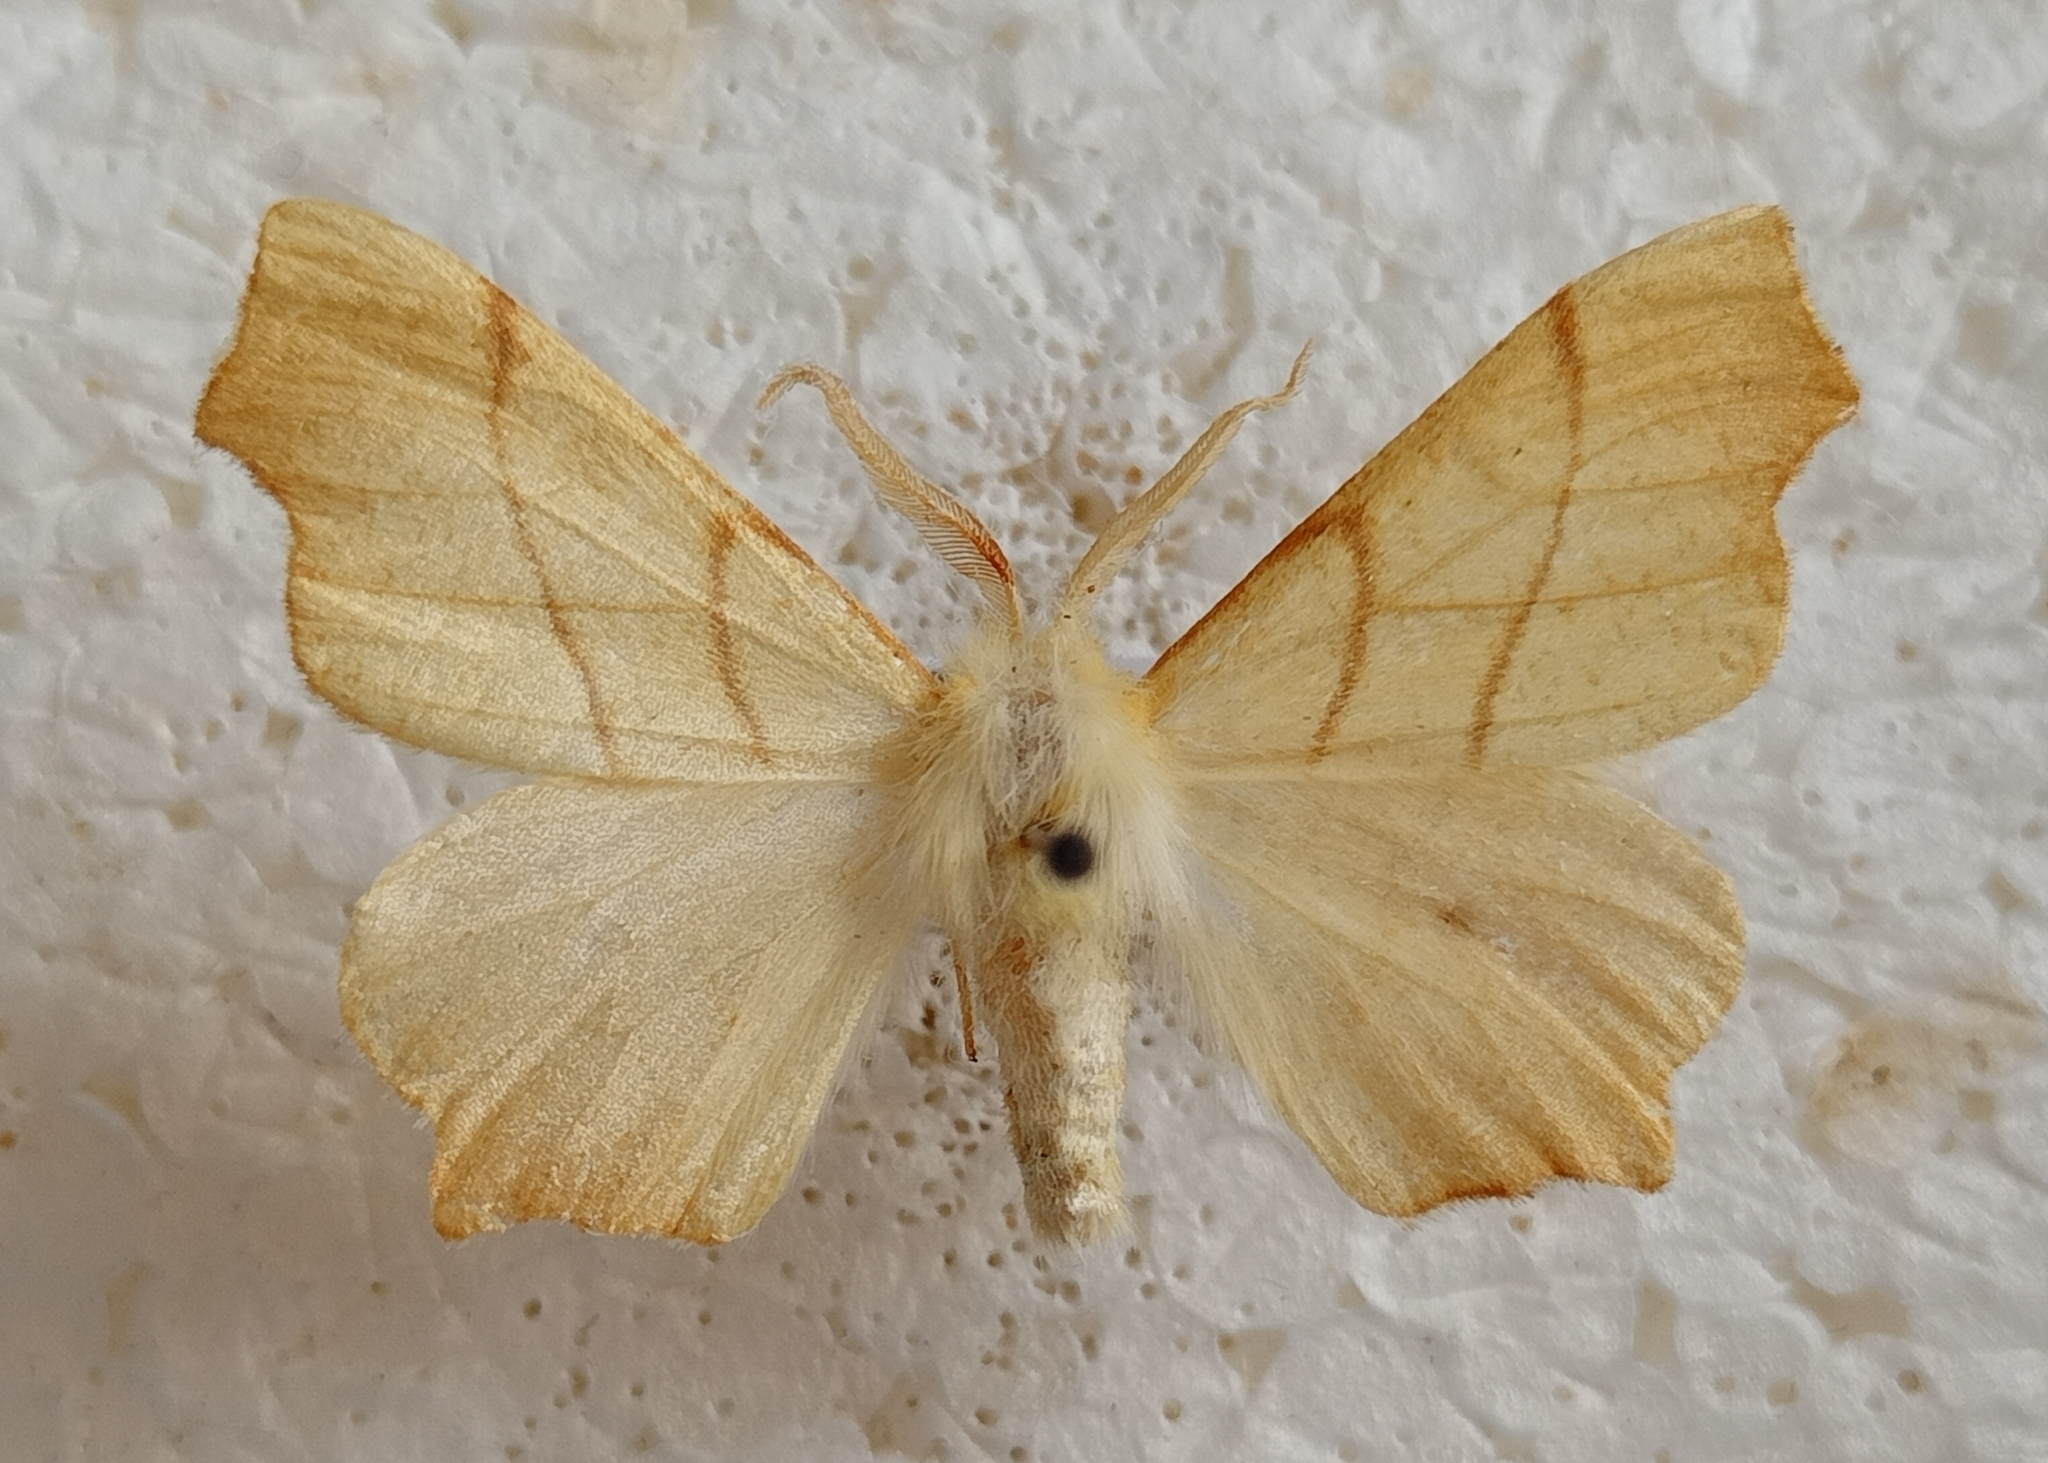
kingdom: Animalia
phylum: Arthropoda
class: Insecta
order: Lepidoptera
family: Geometridae
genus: Ennomos
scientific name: Ennomos erosaria
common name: September thorn
